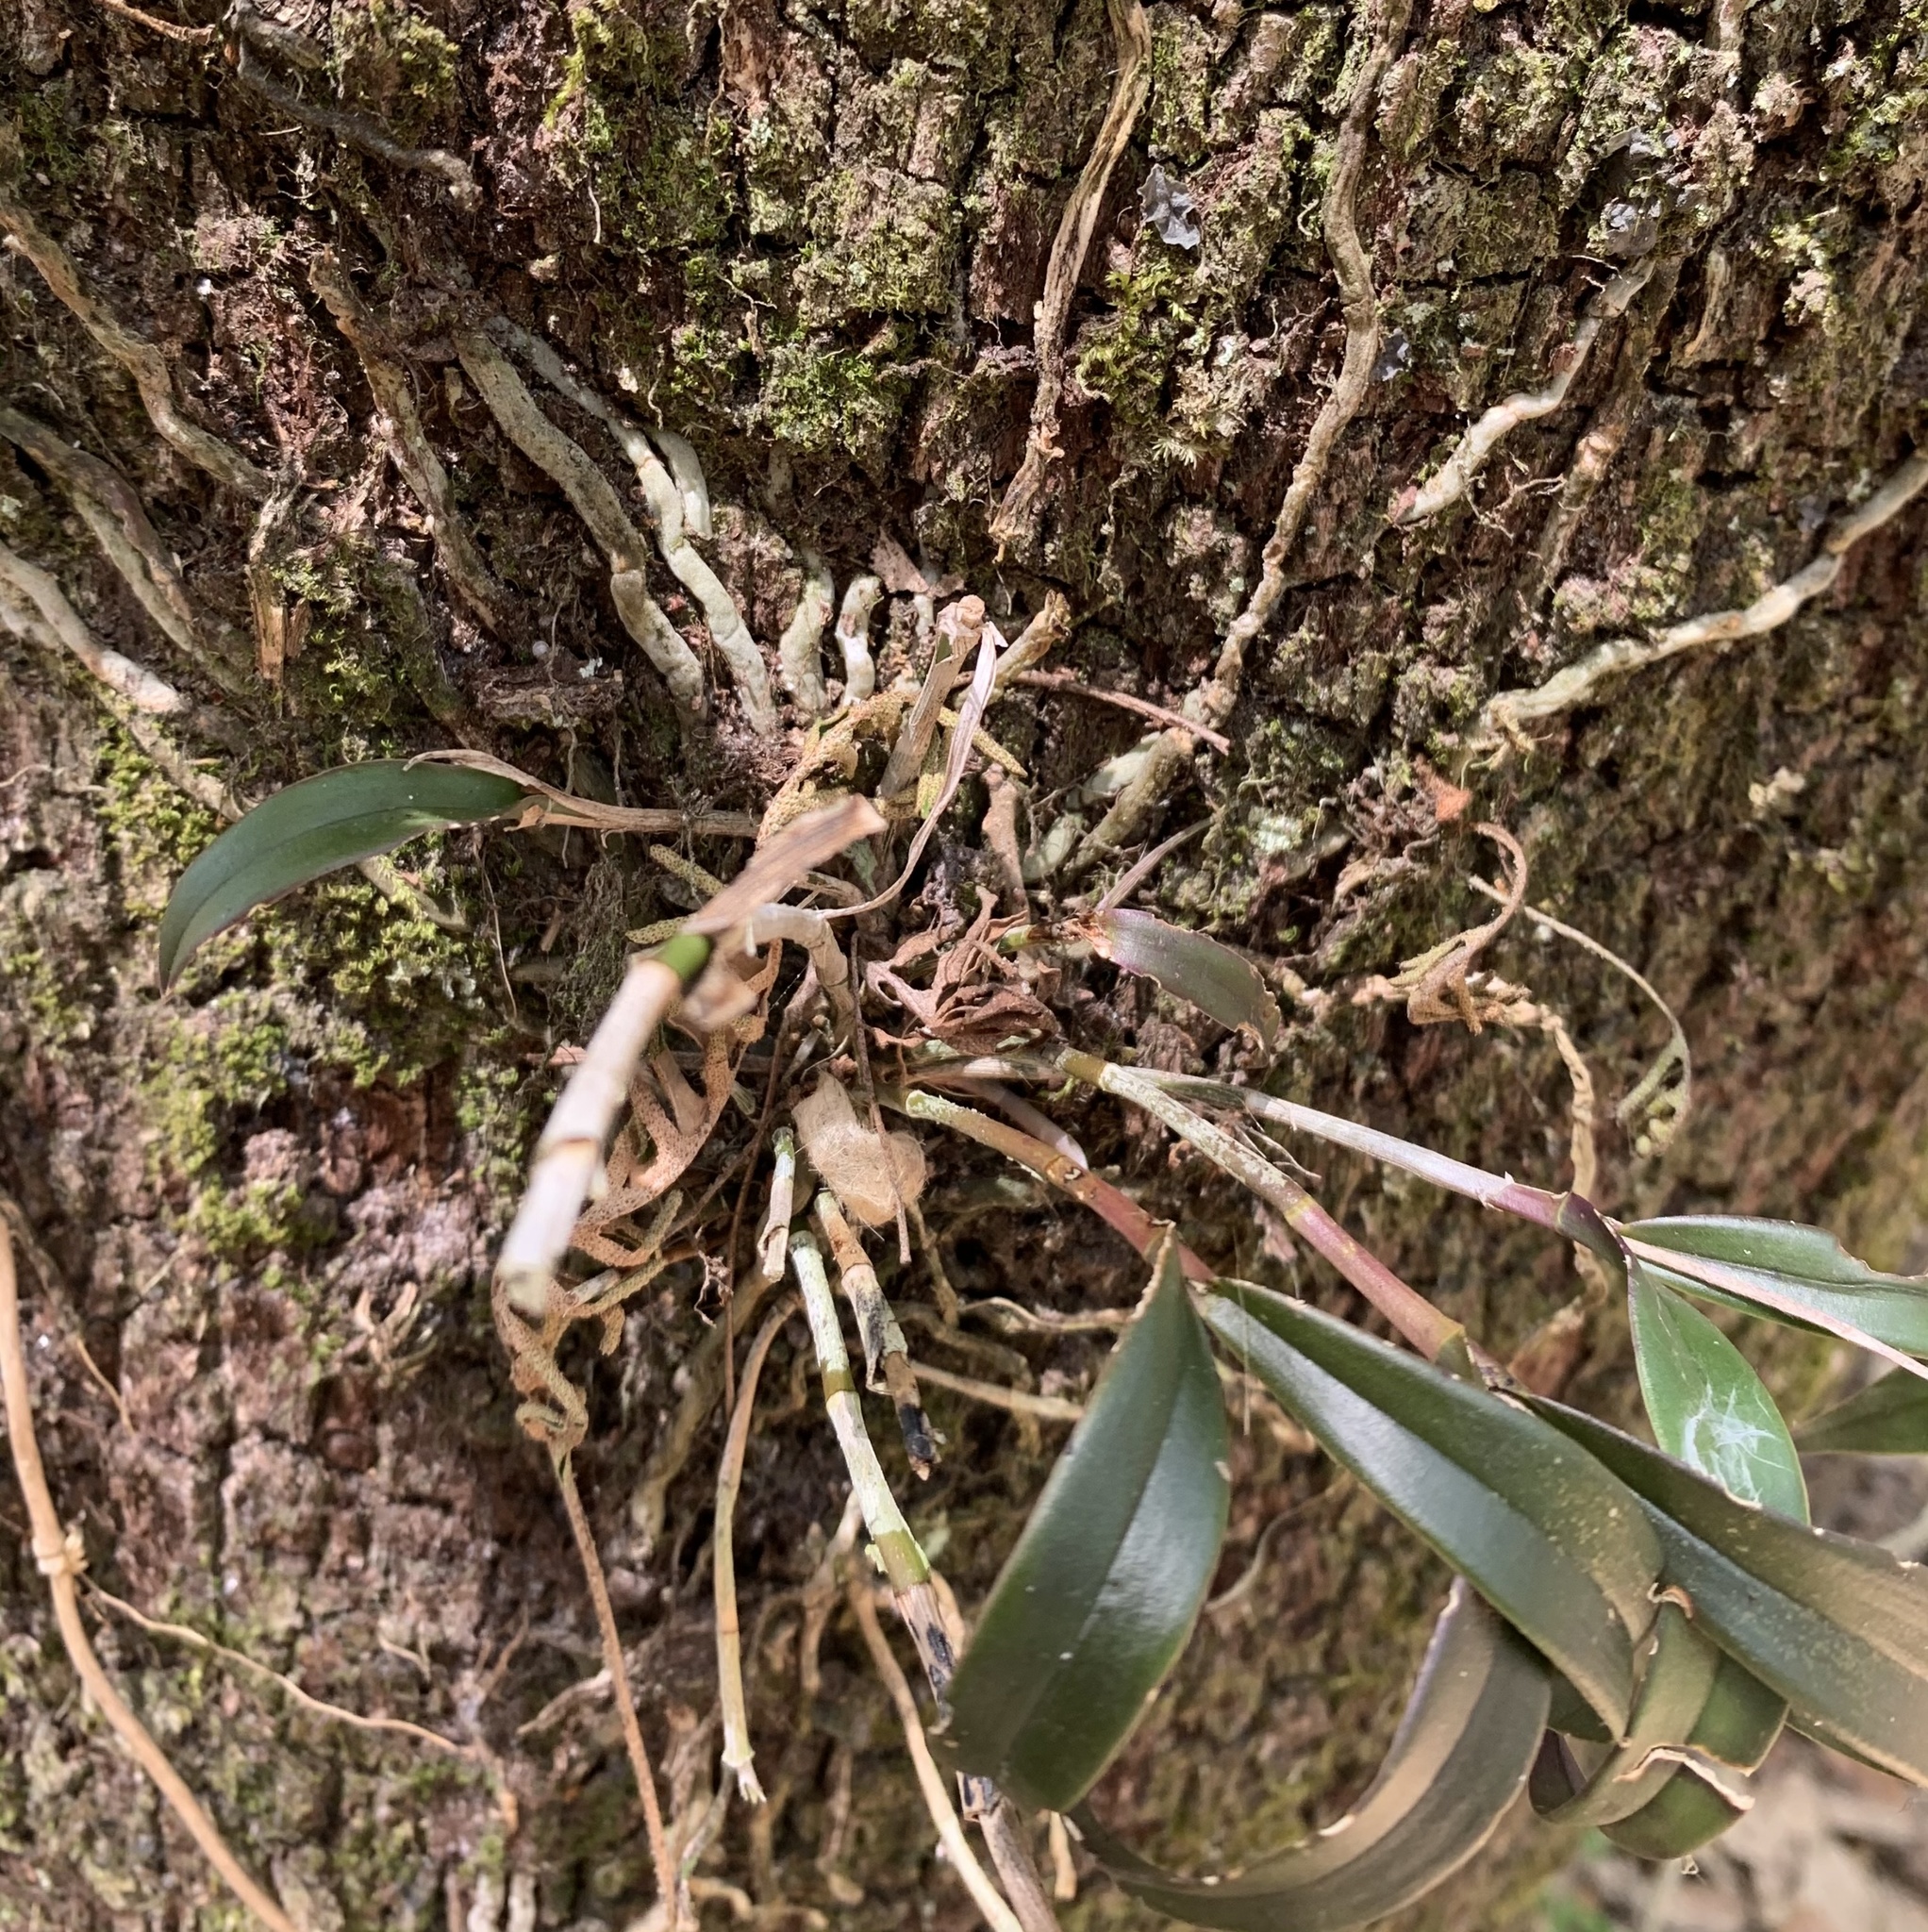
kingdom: Plantae
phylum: Tracheophyta
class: Liliopsida
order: Asparagales
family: Orchidaceae
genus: Epidendrum
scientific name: Epidendrum conopseum
